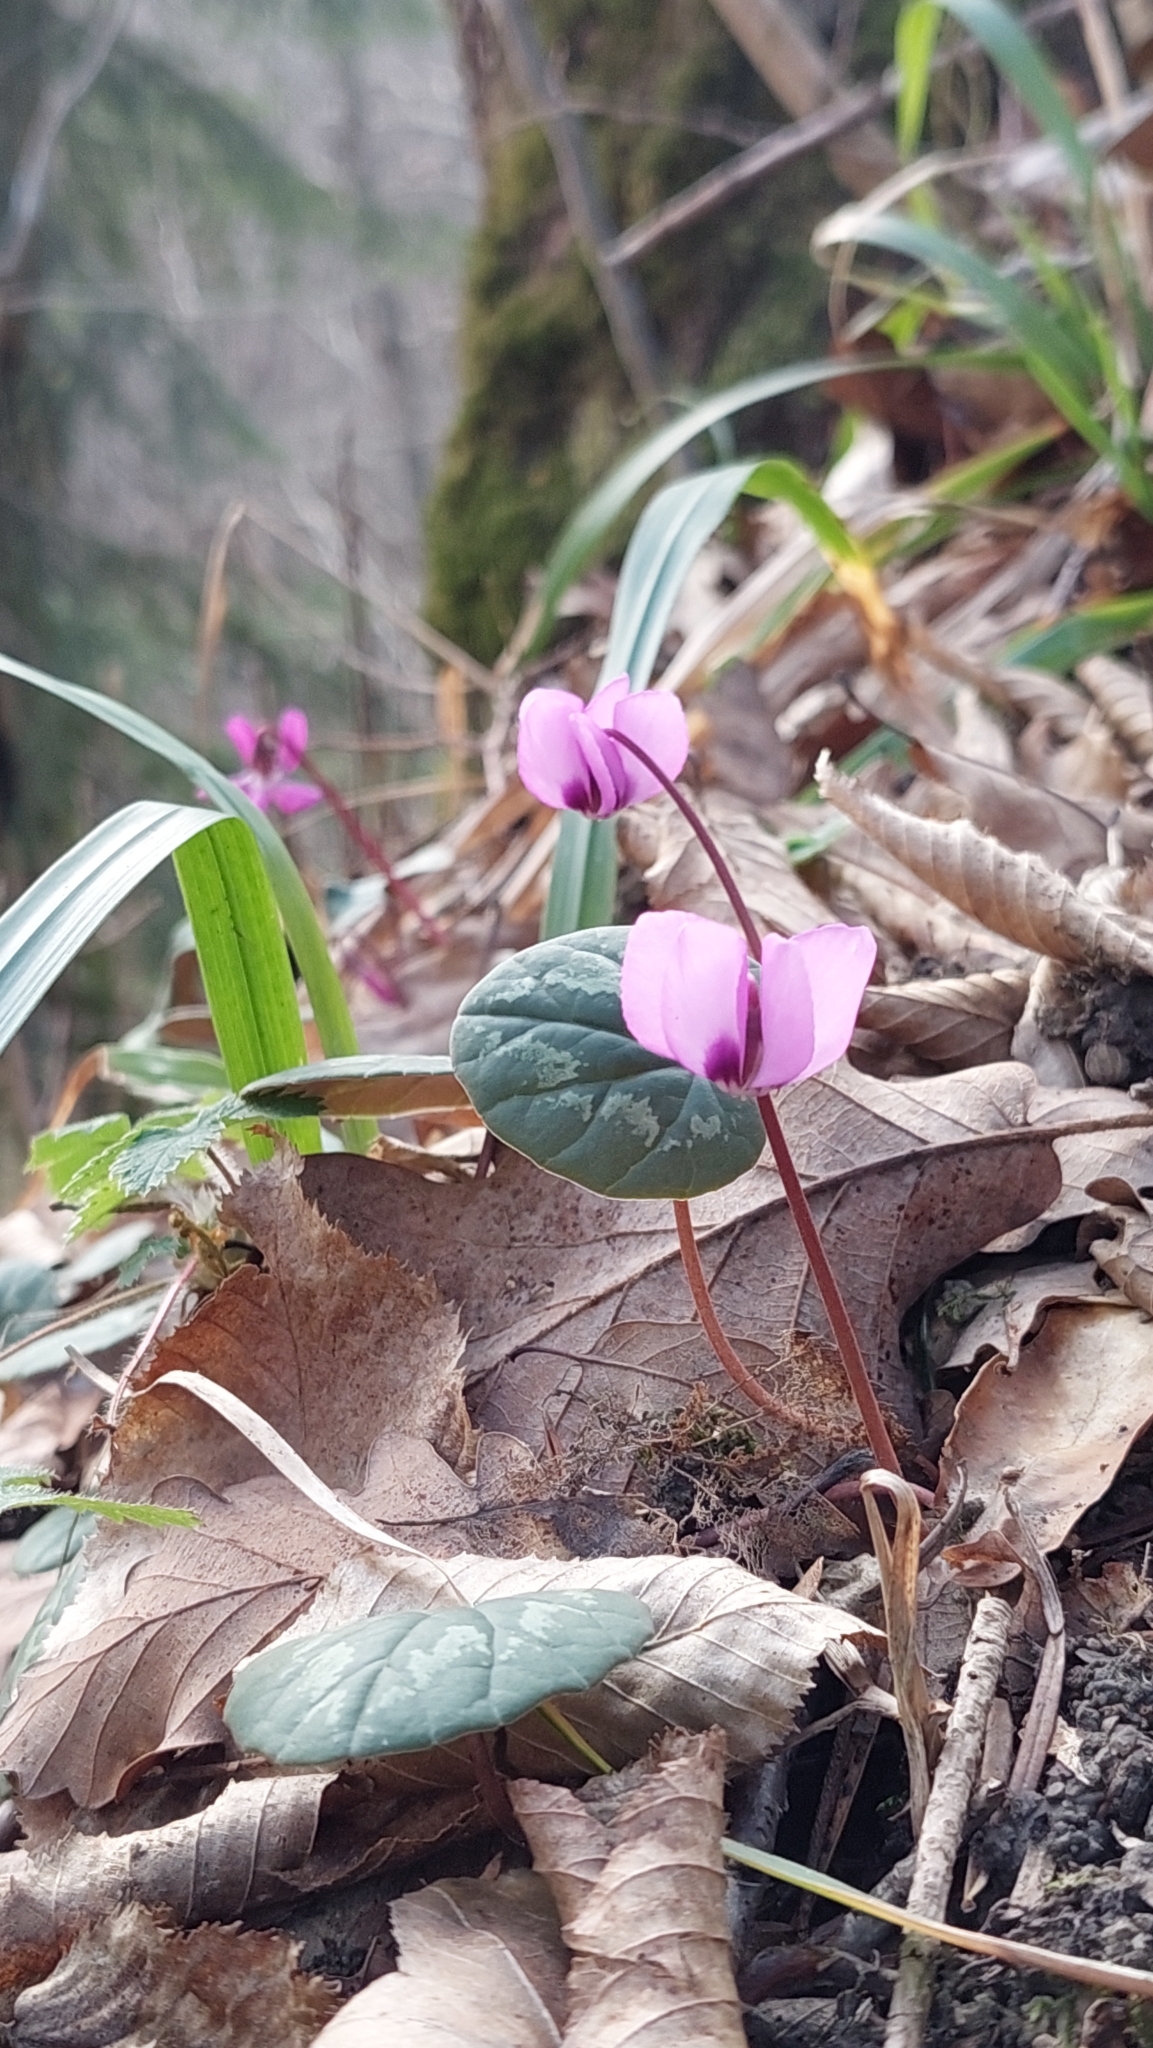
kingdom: Plantae
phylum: Tracheophyta
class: Magnoliopsida
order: Ericales
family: Primulaceae
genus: Cyclamen
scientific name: Cyclamen coum
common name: Eastern sowbread
